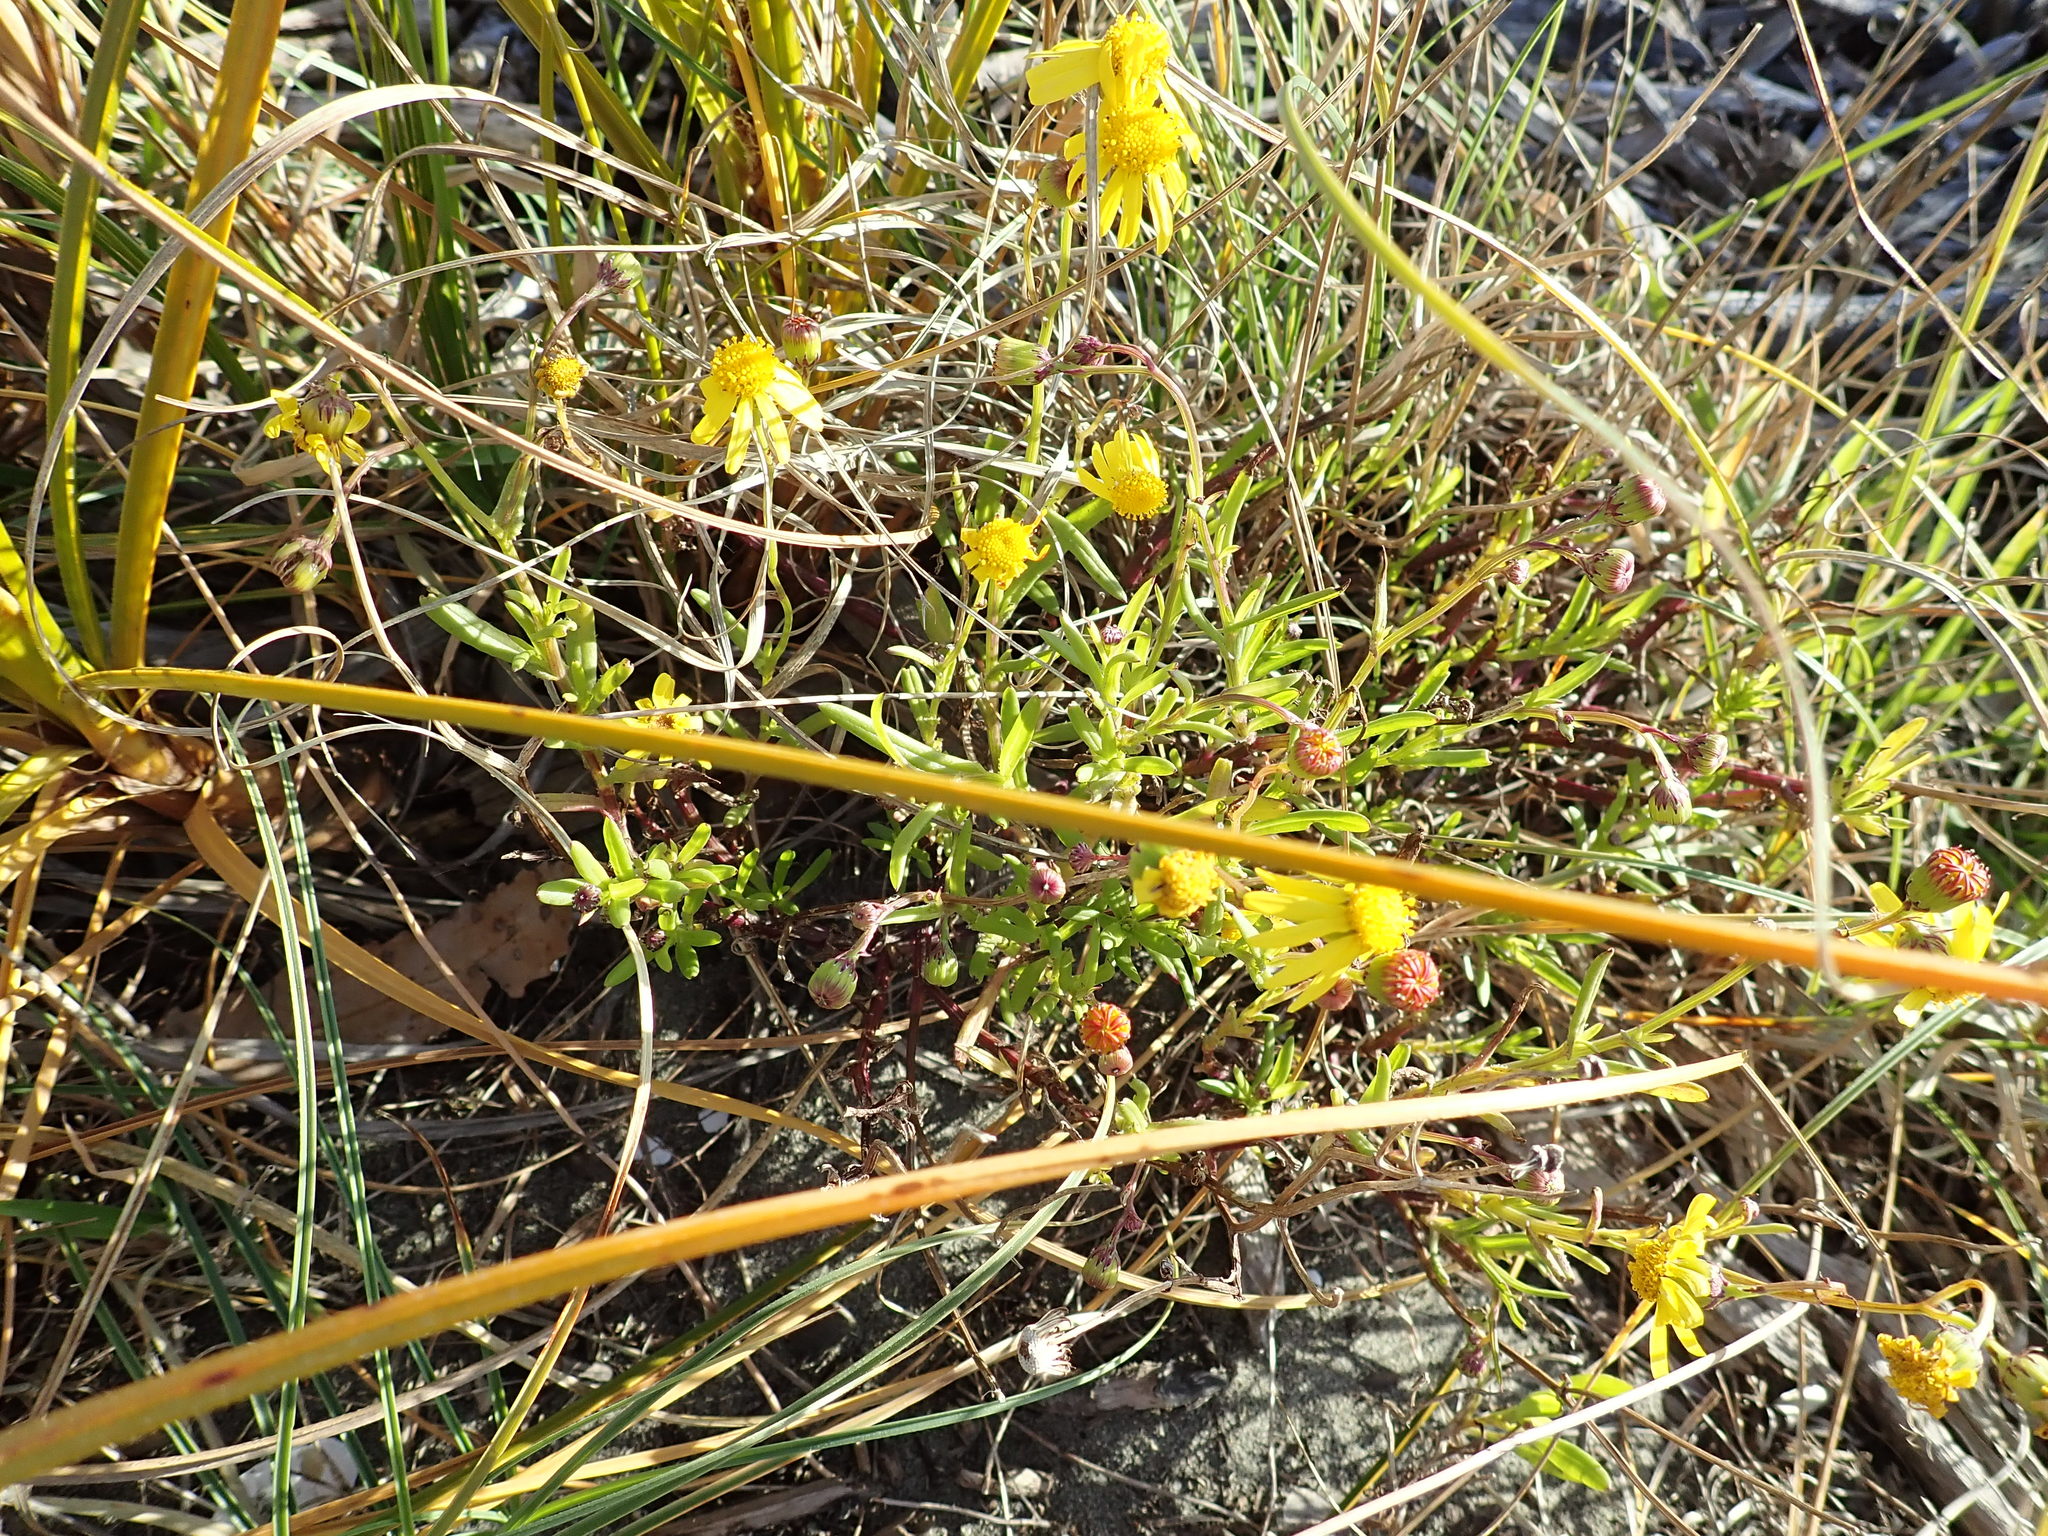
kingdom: Plantae
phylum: Tracheophyta
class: Magnoliopsida
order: Asterales
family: Asteraceae
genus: Senecio
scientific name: Senecio skirrhodon
